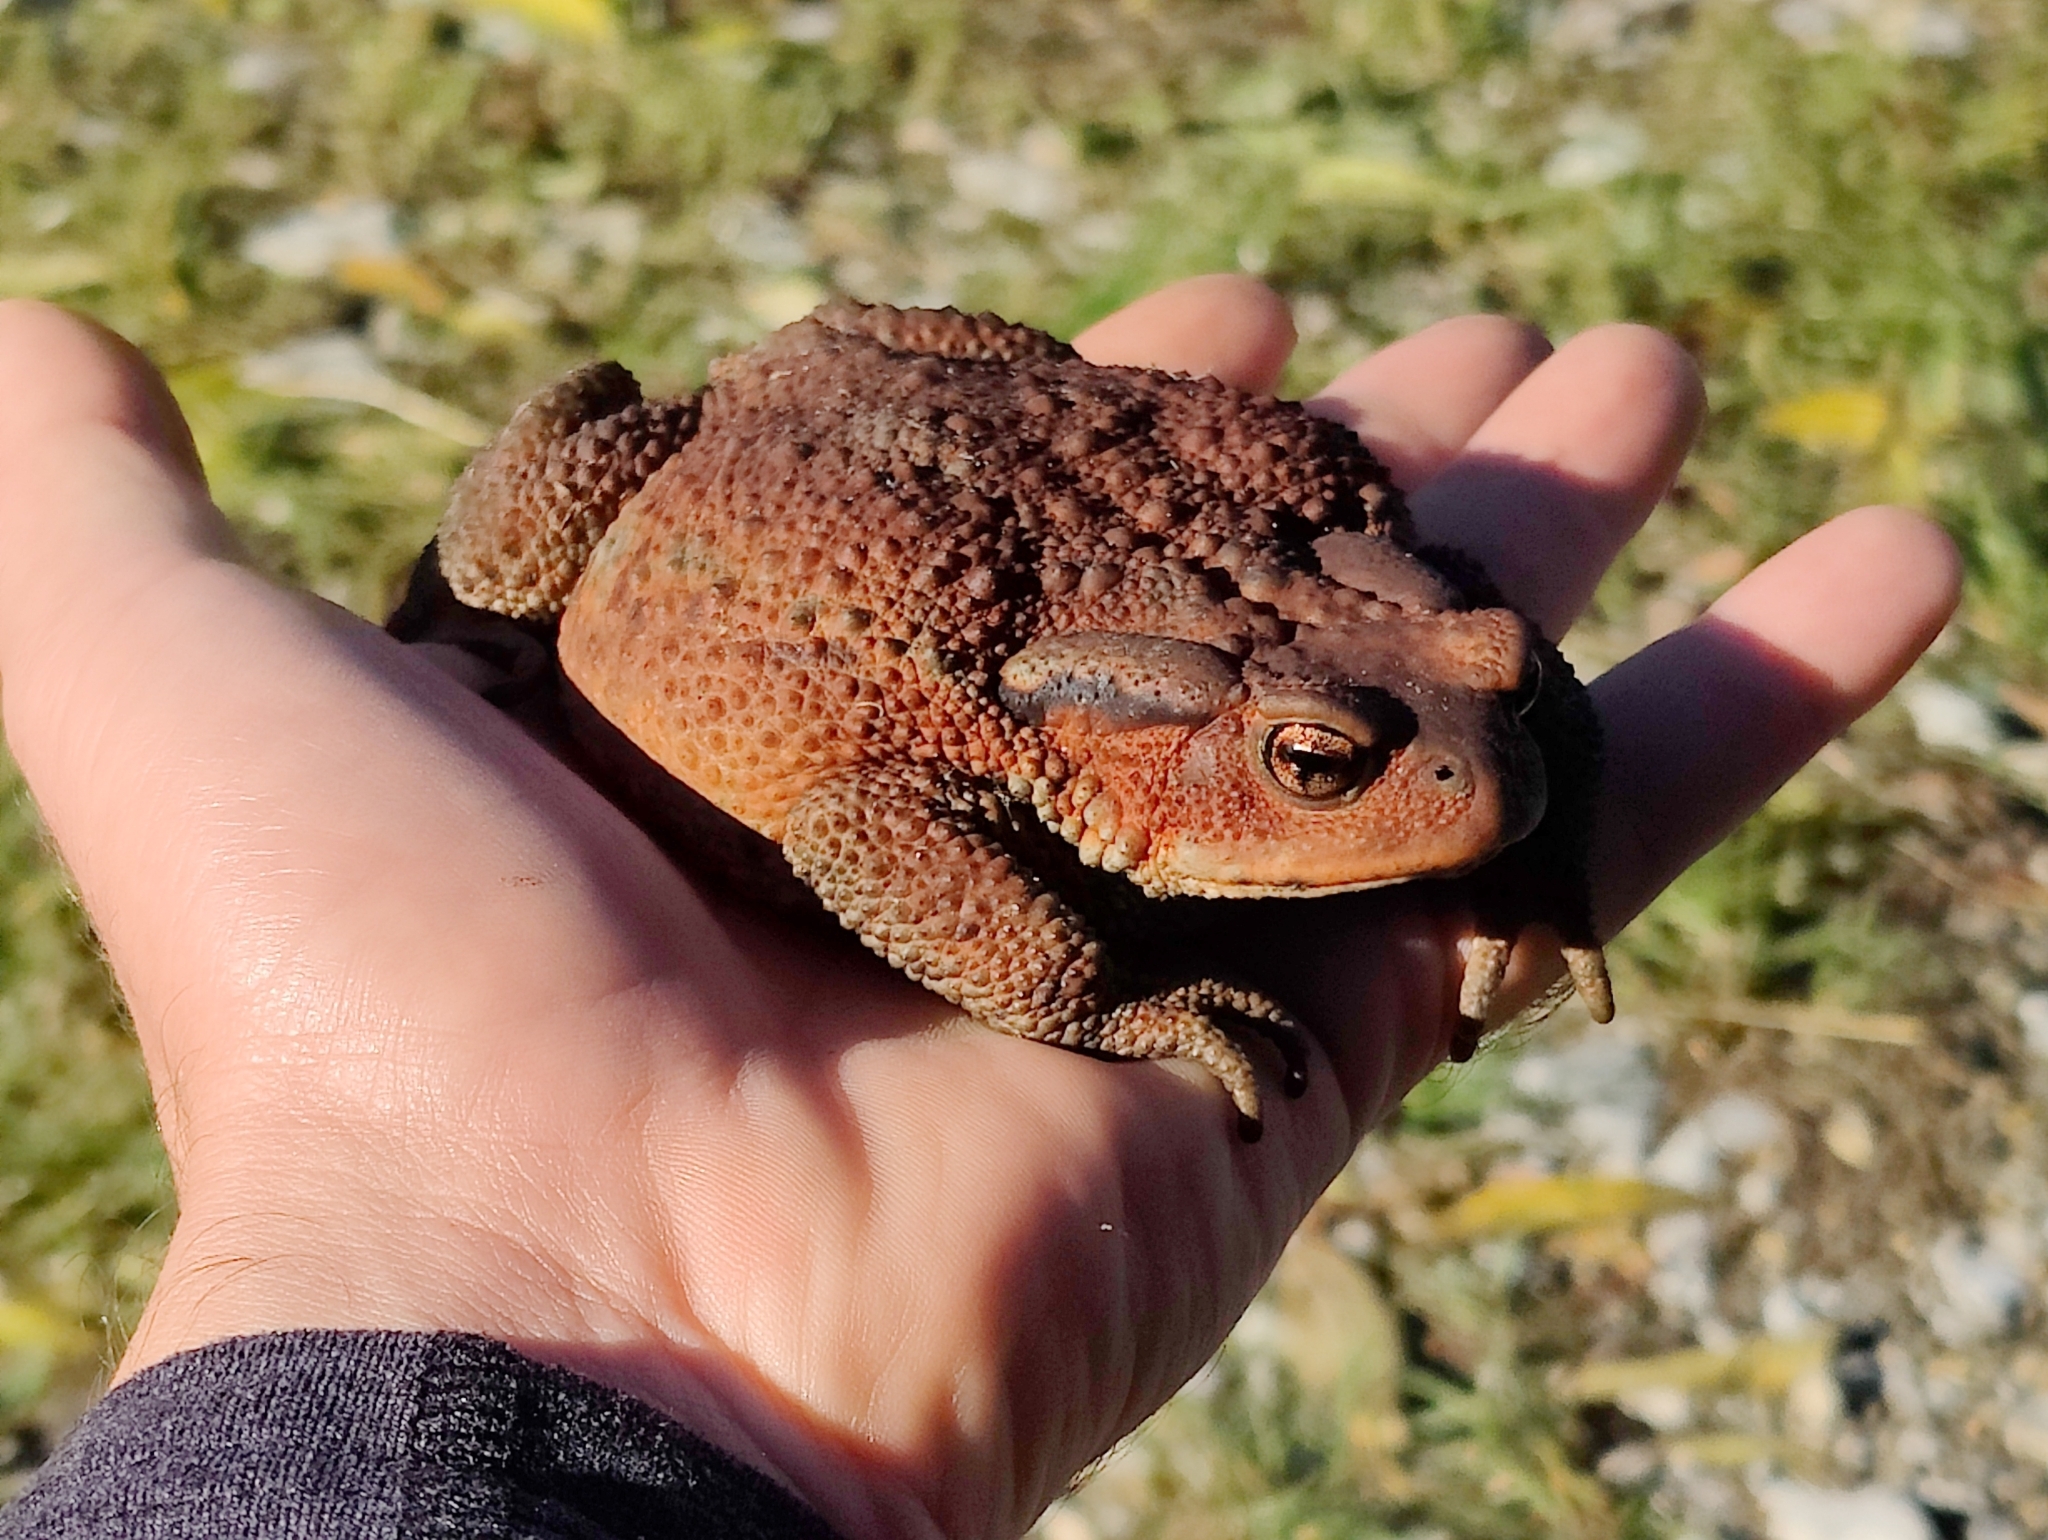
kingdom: Animalia
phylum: Chordata
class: Amphibia
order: Anura
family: Bufonidae
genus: Bufo
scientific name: Bufo verrucosissimus
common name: Caucasian toad
